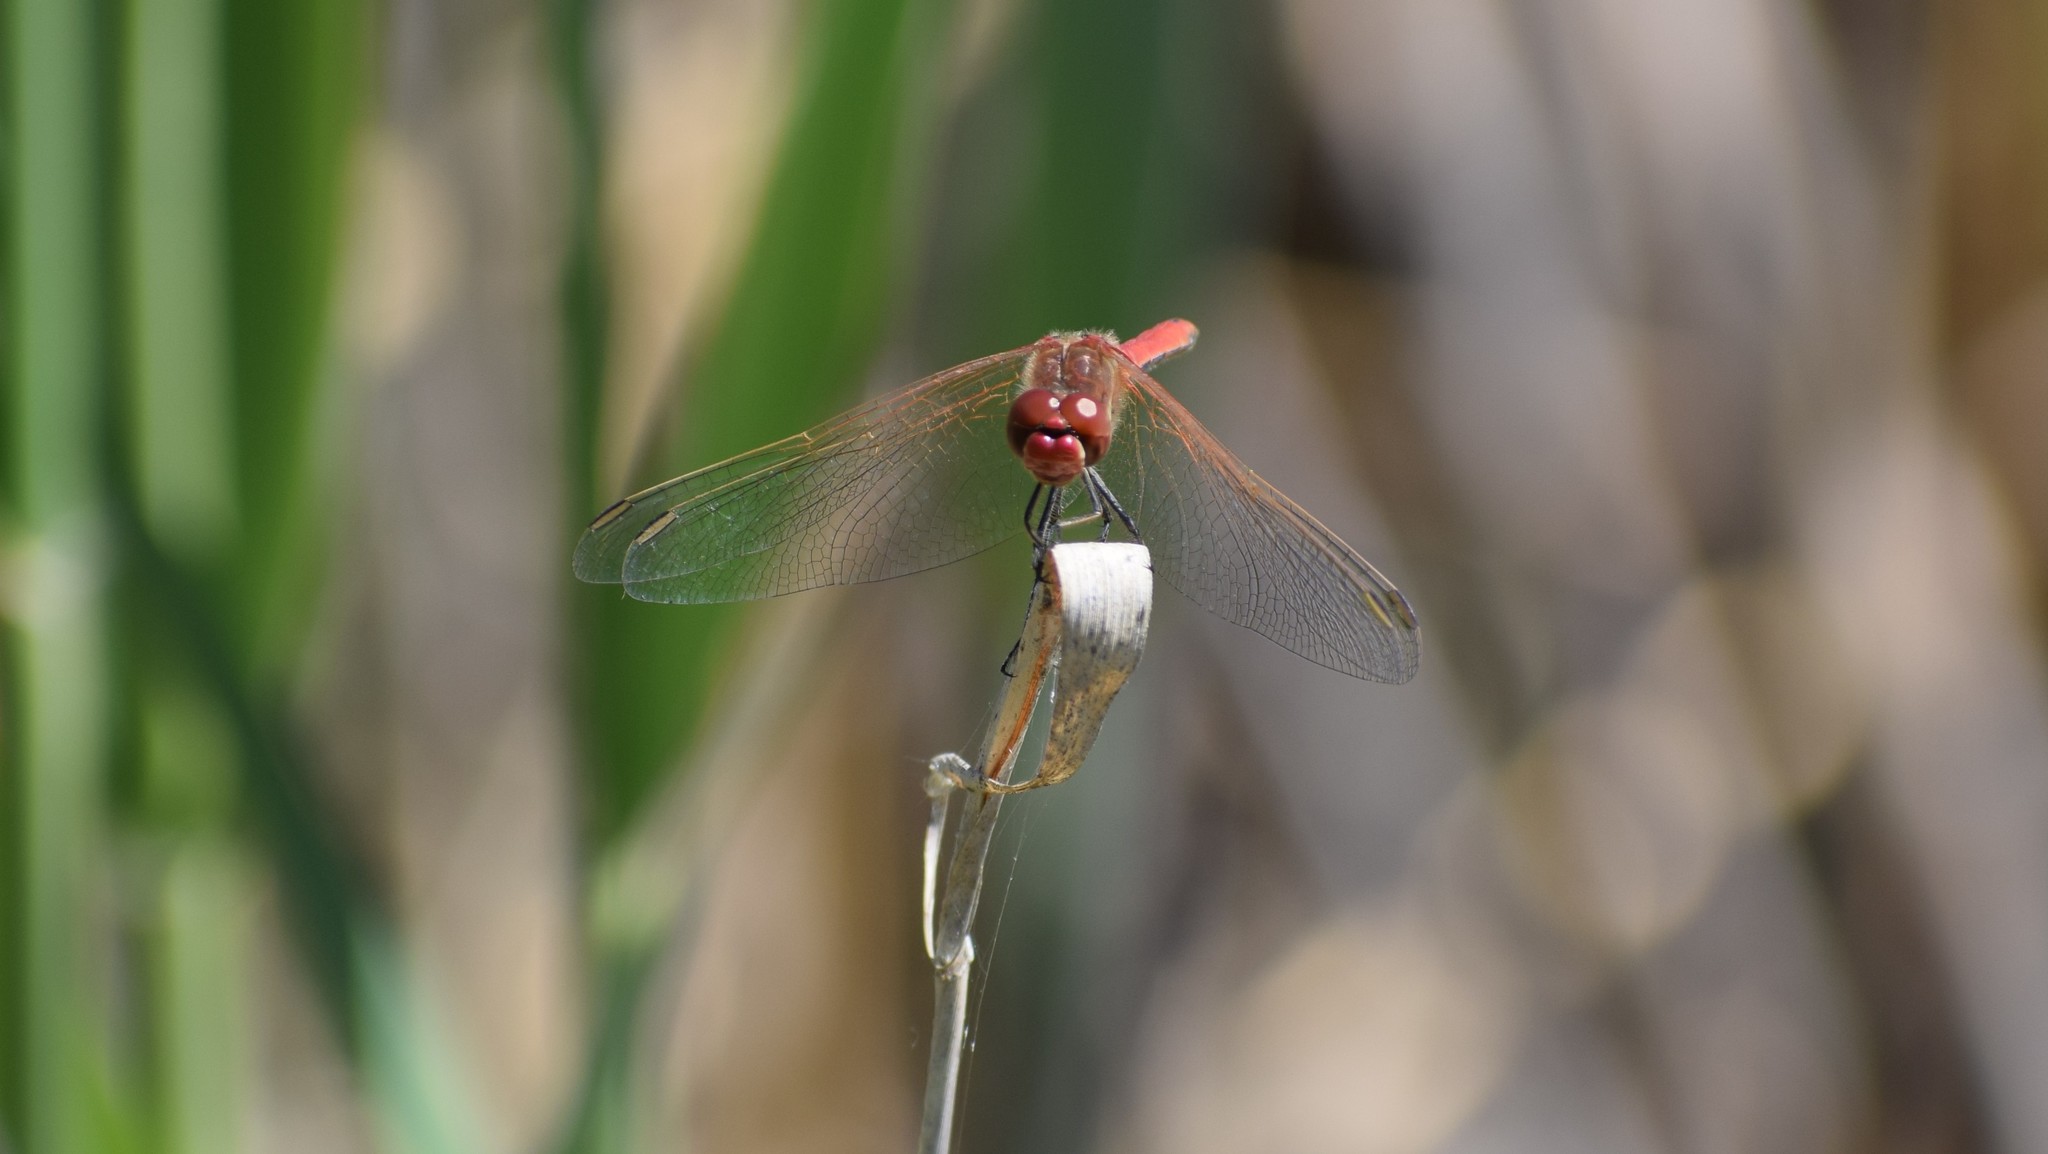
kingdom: Animalia
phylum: Arthropoda
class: Insecta
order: Odonata
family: Libellulidae
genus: Sympetrum
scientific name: Sympetrum fonscolombii
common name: Red-veined darter
